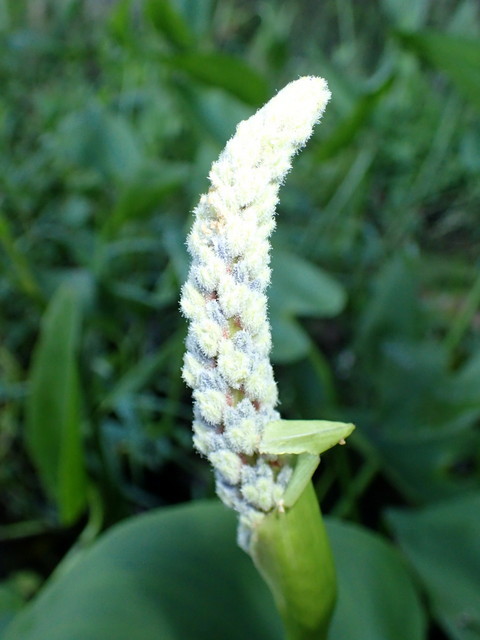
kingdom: Plantae
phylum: Tracheophyta
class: Liliopsida
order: Commelinales
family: Pontederiaceae
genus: Pontederia
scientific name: Pontederia cordata
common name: Pickerelweed
